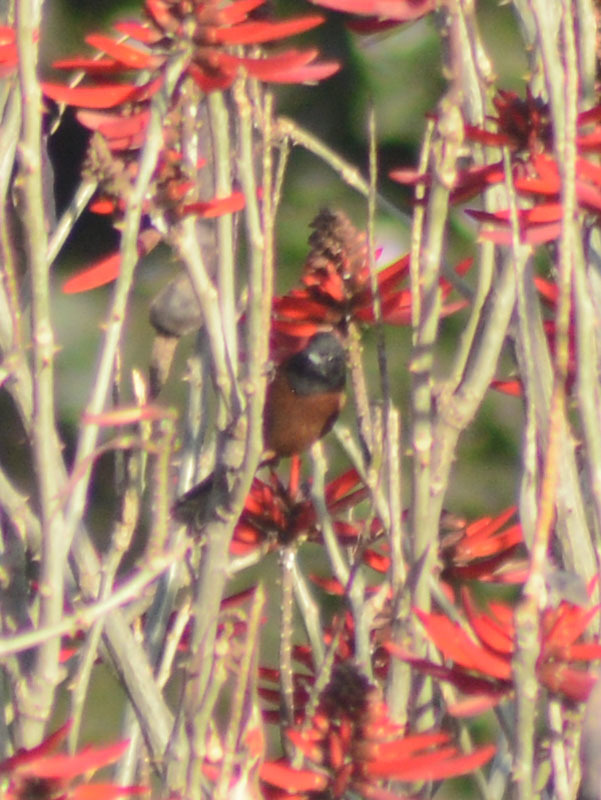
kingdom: Animalia
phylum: Chordata
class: Aves
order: Passeriformes
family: Icteridae
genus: Icterus
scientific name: Icterus spurius
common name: Orchard oriole
